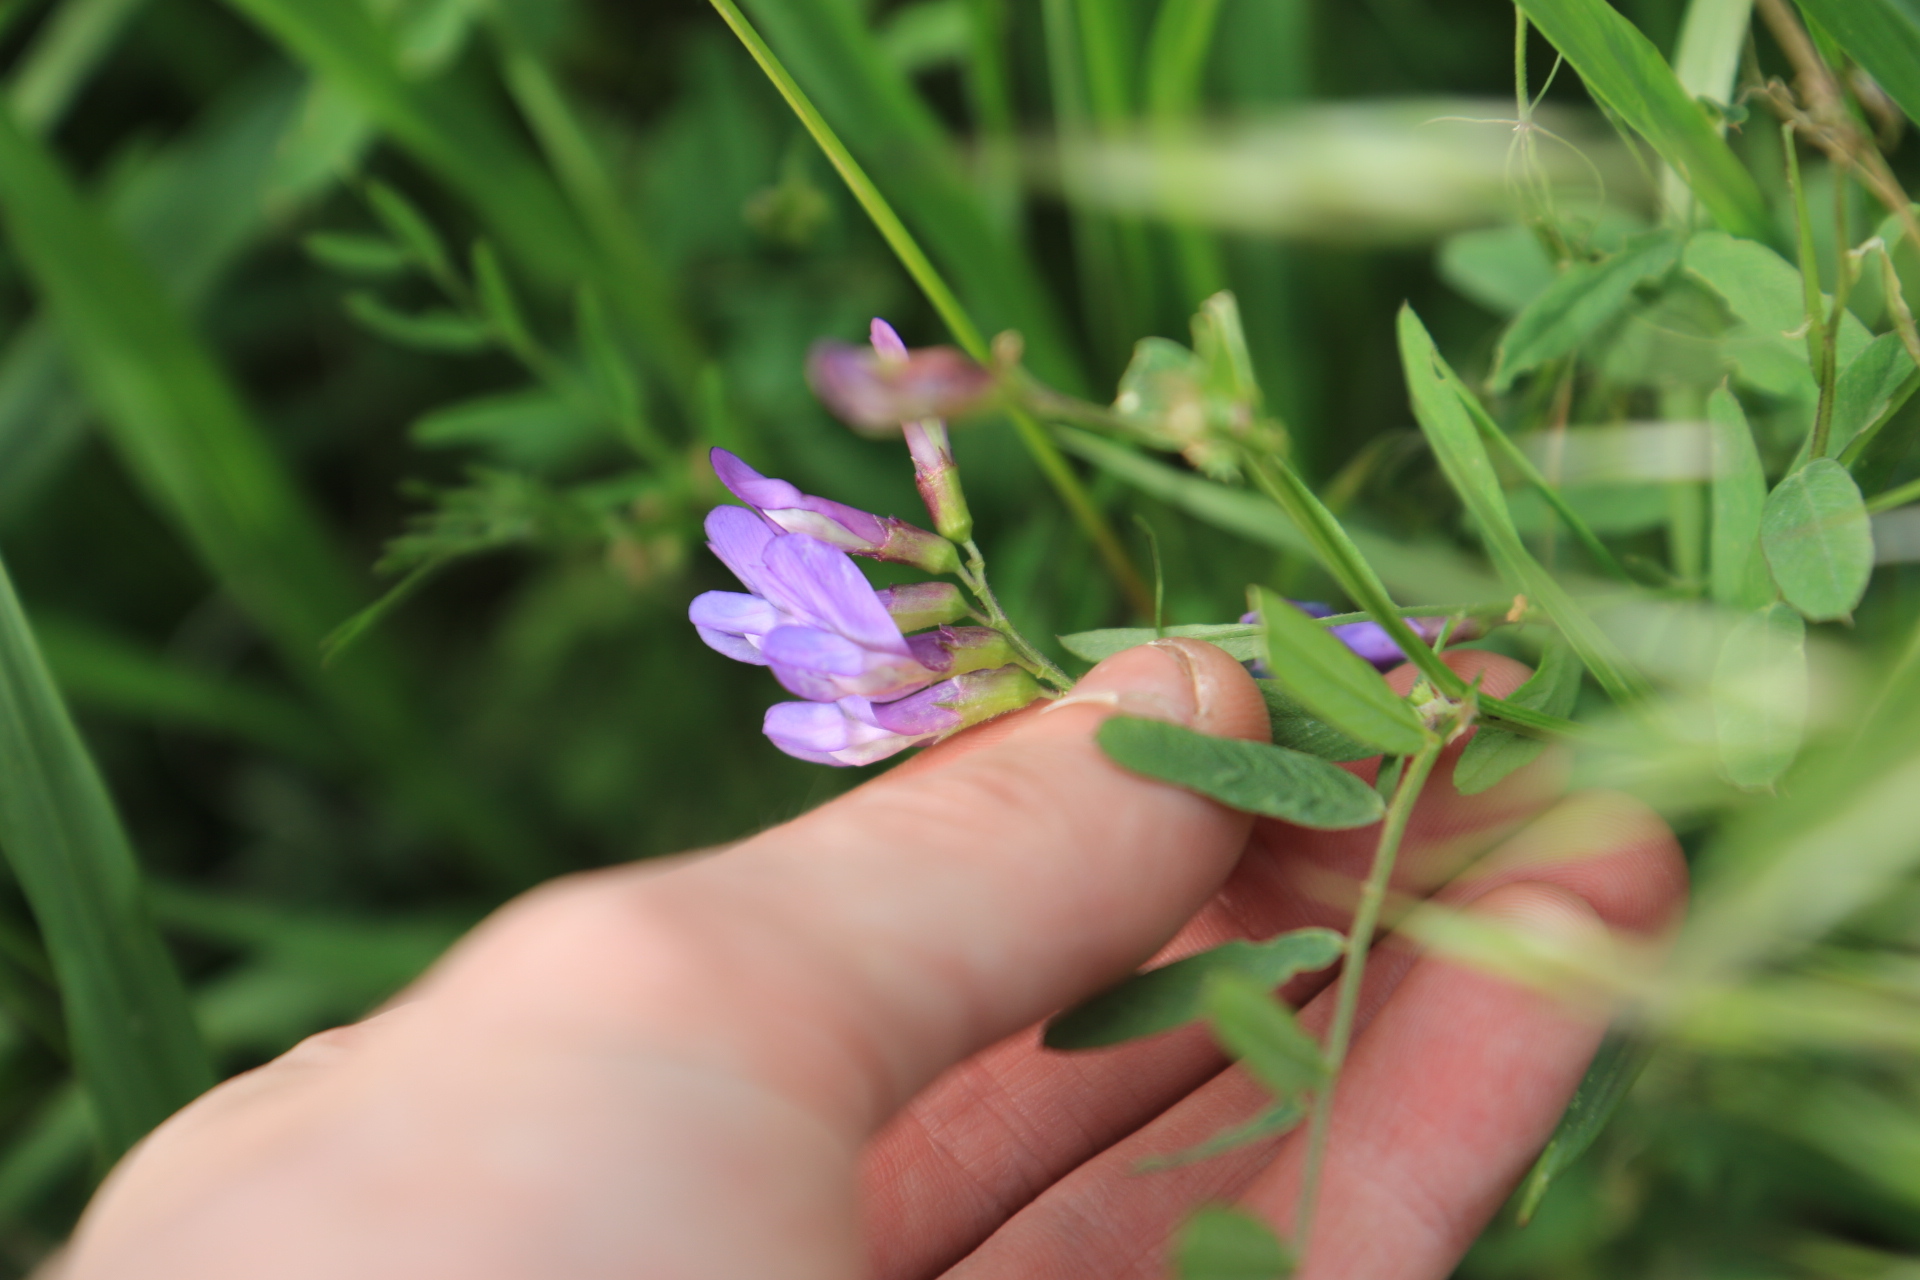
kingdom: Plantae
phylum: Tracheophyta
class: Magnoliopsida
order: Fabales
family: Fabaceae
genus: Vicia
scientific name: Vicia americana
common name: American vetch
